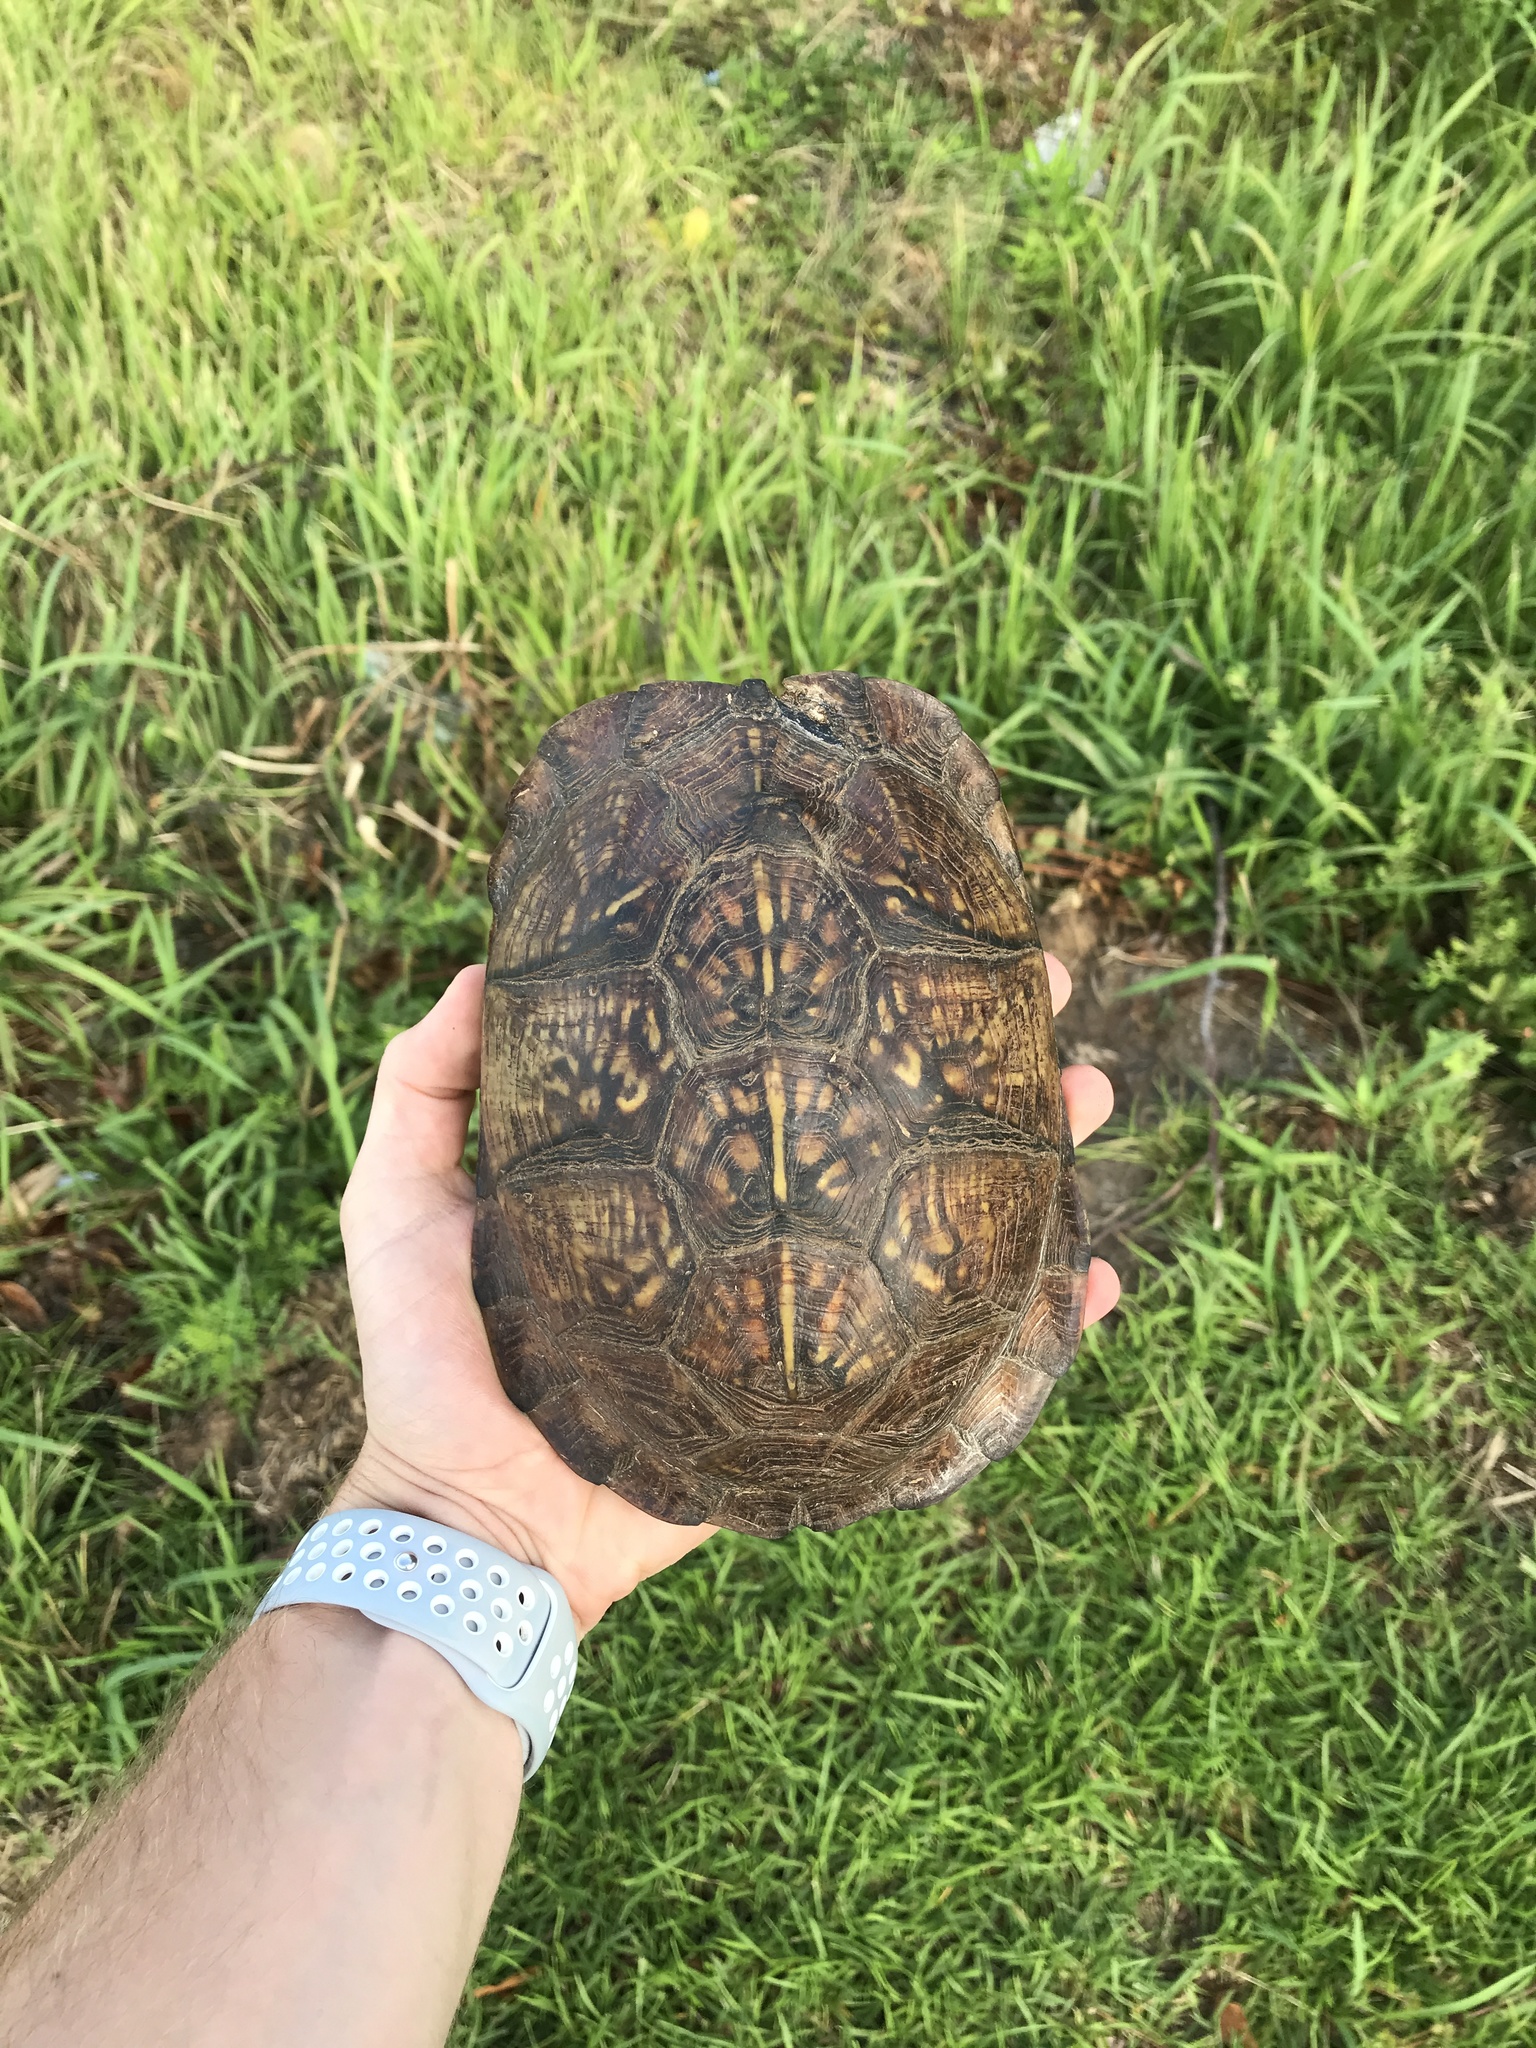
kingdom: Animalia
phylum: Chordata
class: Testudines
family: Emydidae
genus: Terrapene
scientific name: Terrapene carolina
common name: Common box turtle
